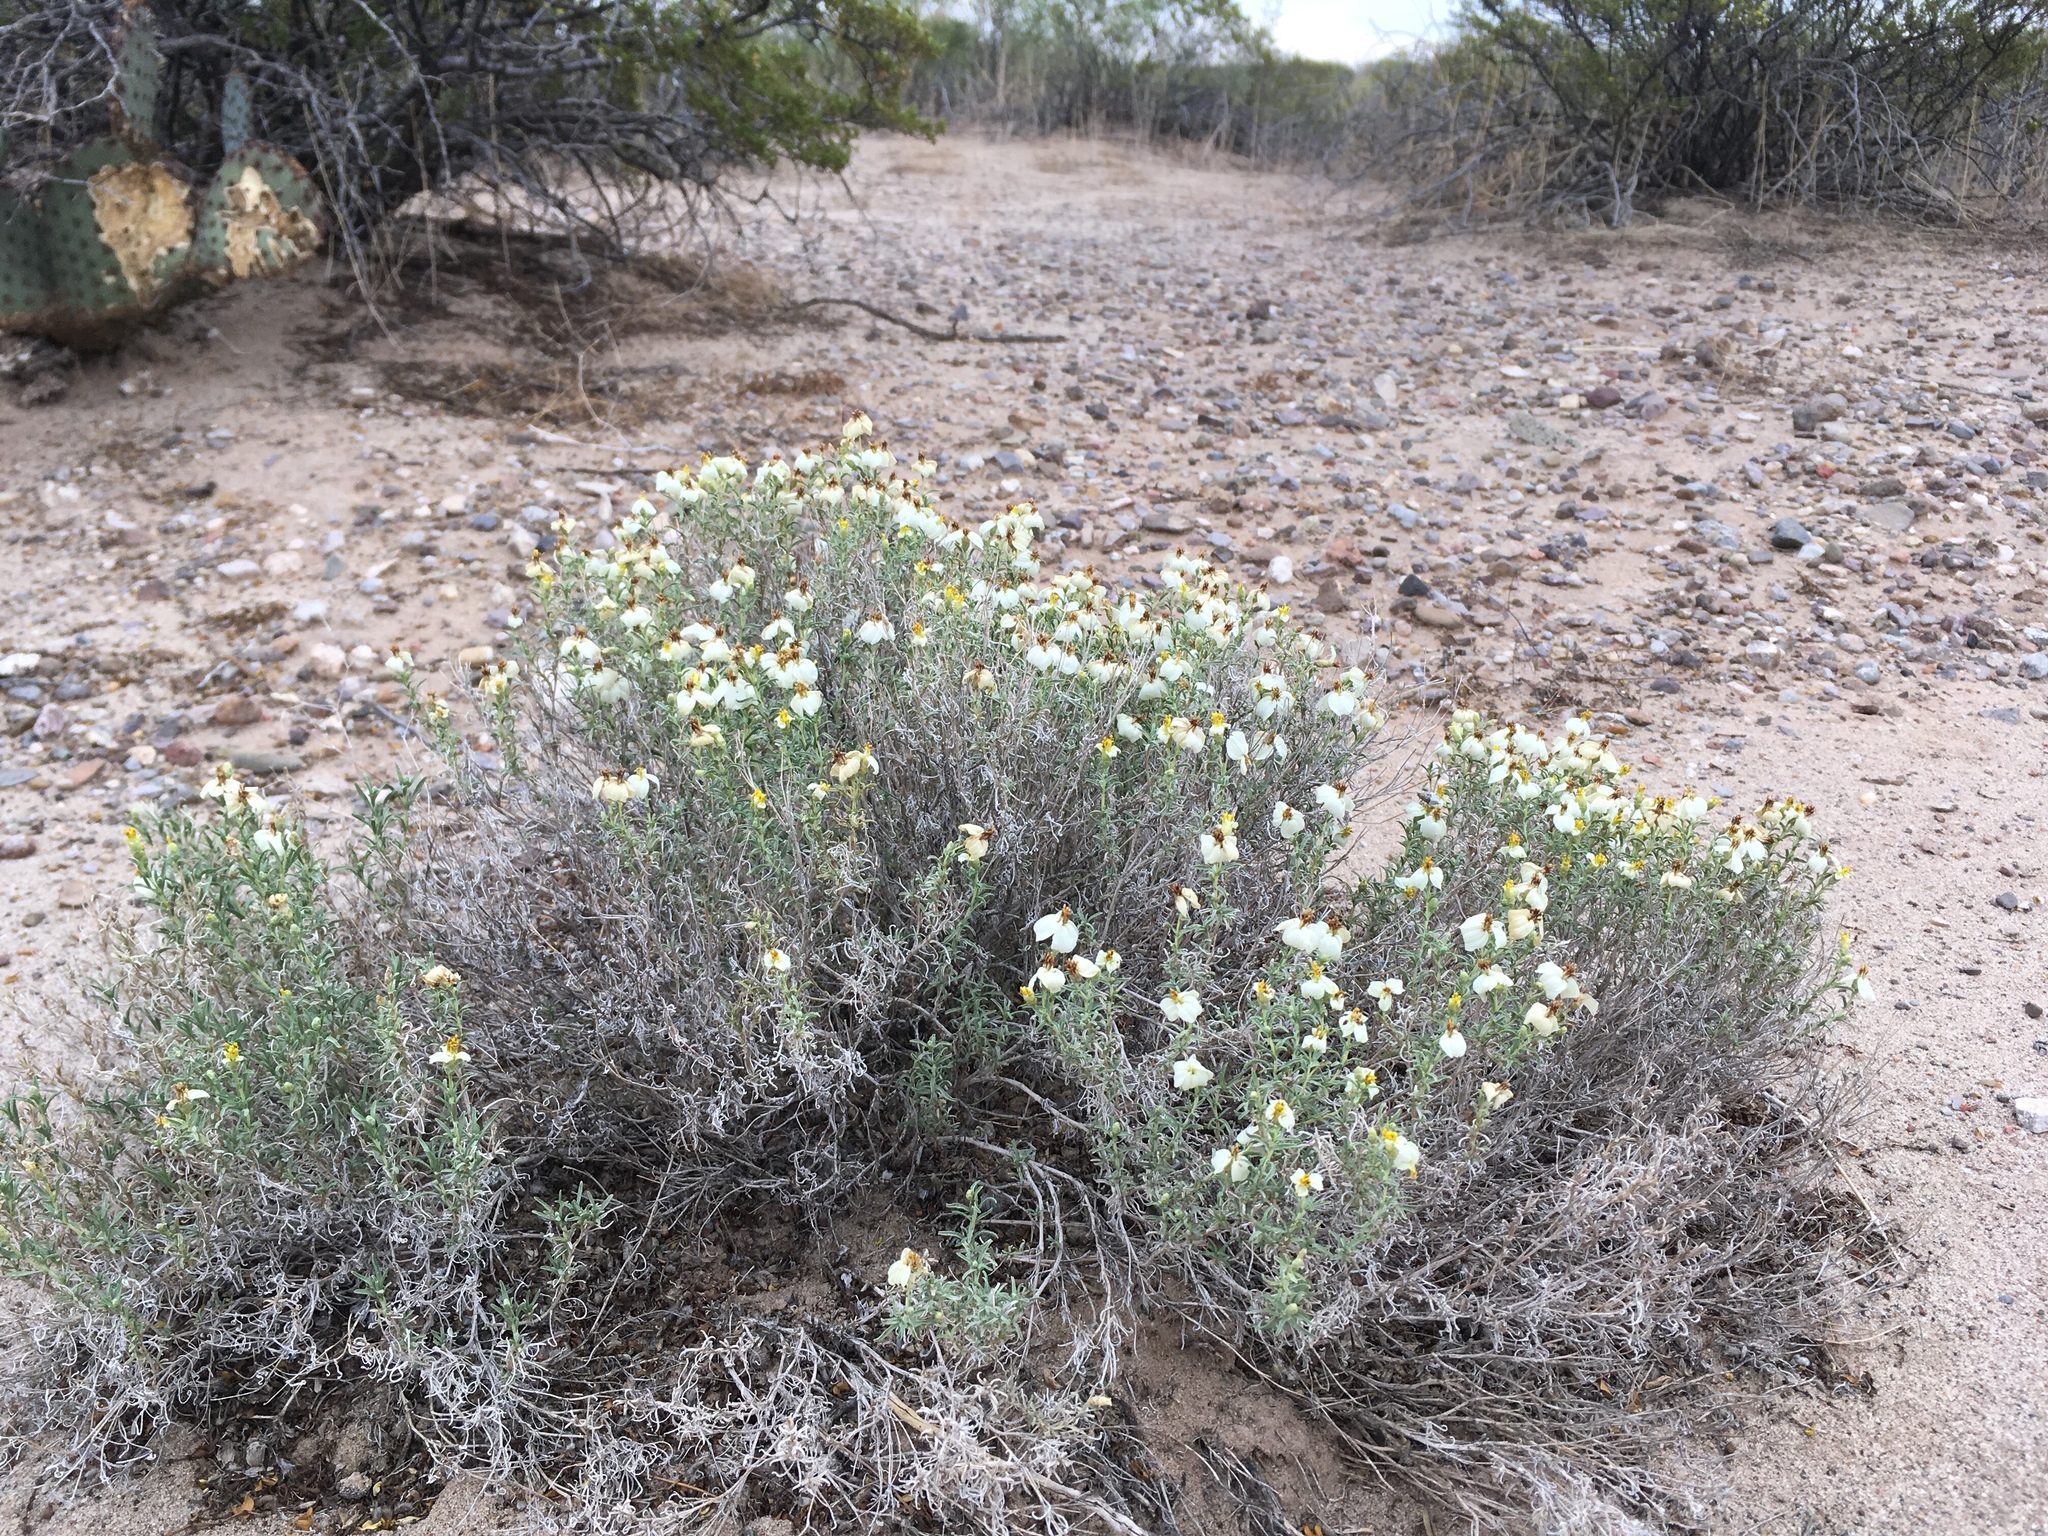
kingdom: Plantae
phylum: Tracheophyta
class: Magnoliopsida
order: Asterales
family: Asteraceae
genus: Zinnia
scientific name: Zinnia acerosa
